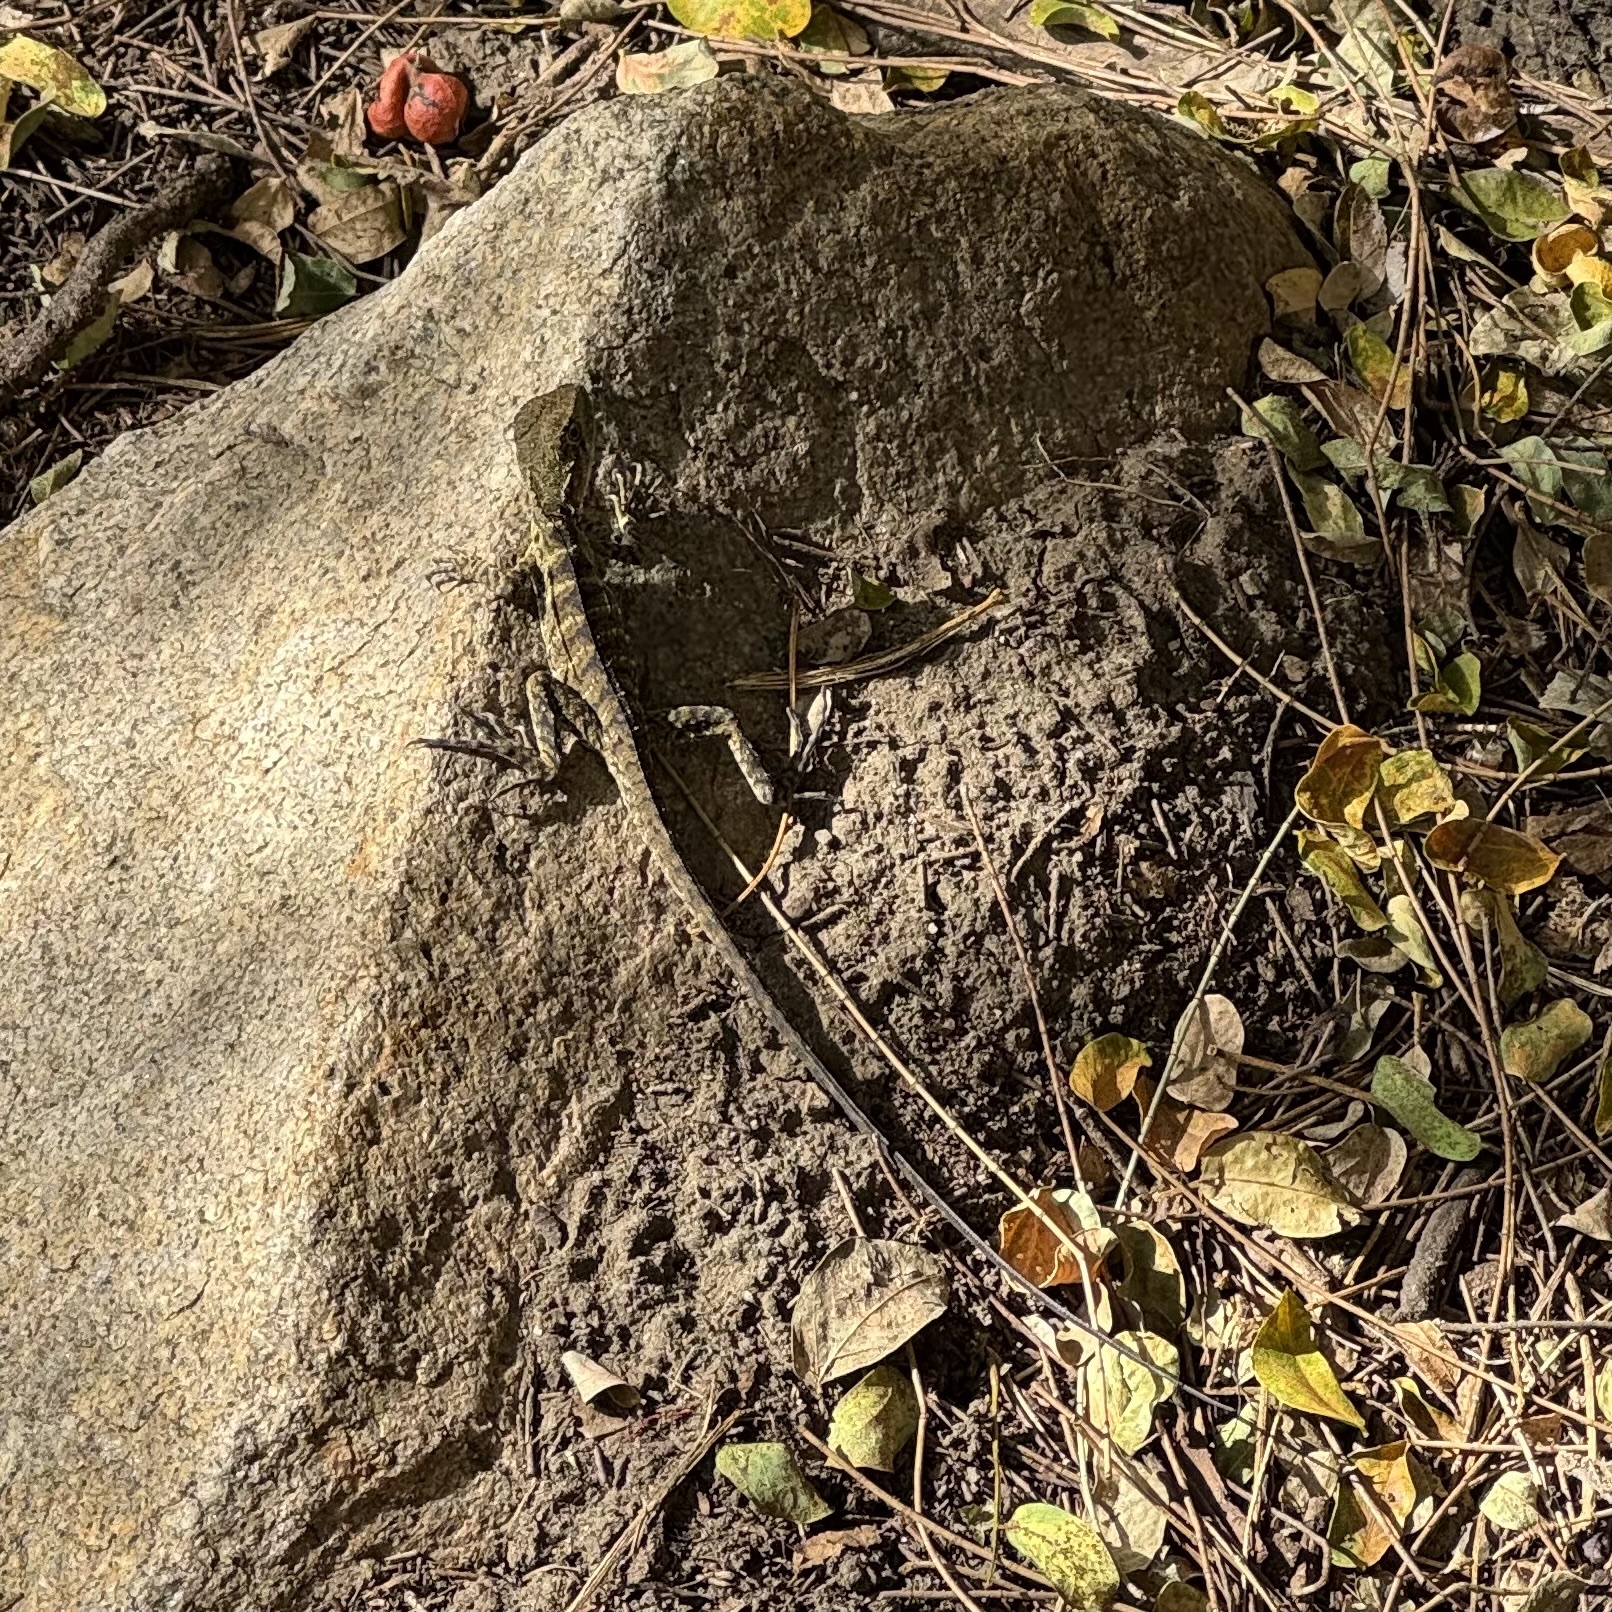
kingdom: Animalia
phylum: Chordata
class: Squamata
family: Agamidae
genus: Intellagama
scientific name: Intellagama lesueurii
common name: Eastern water dragon
